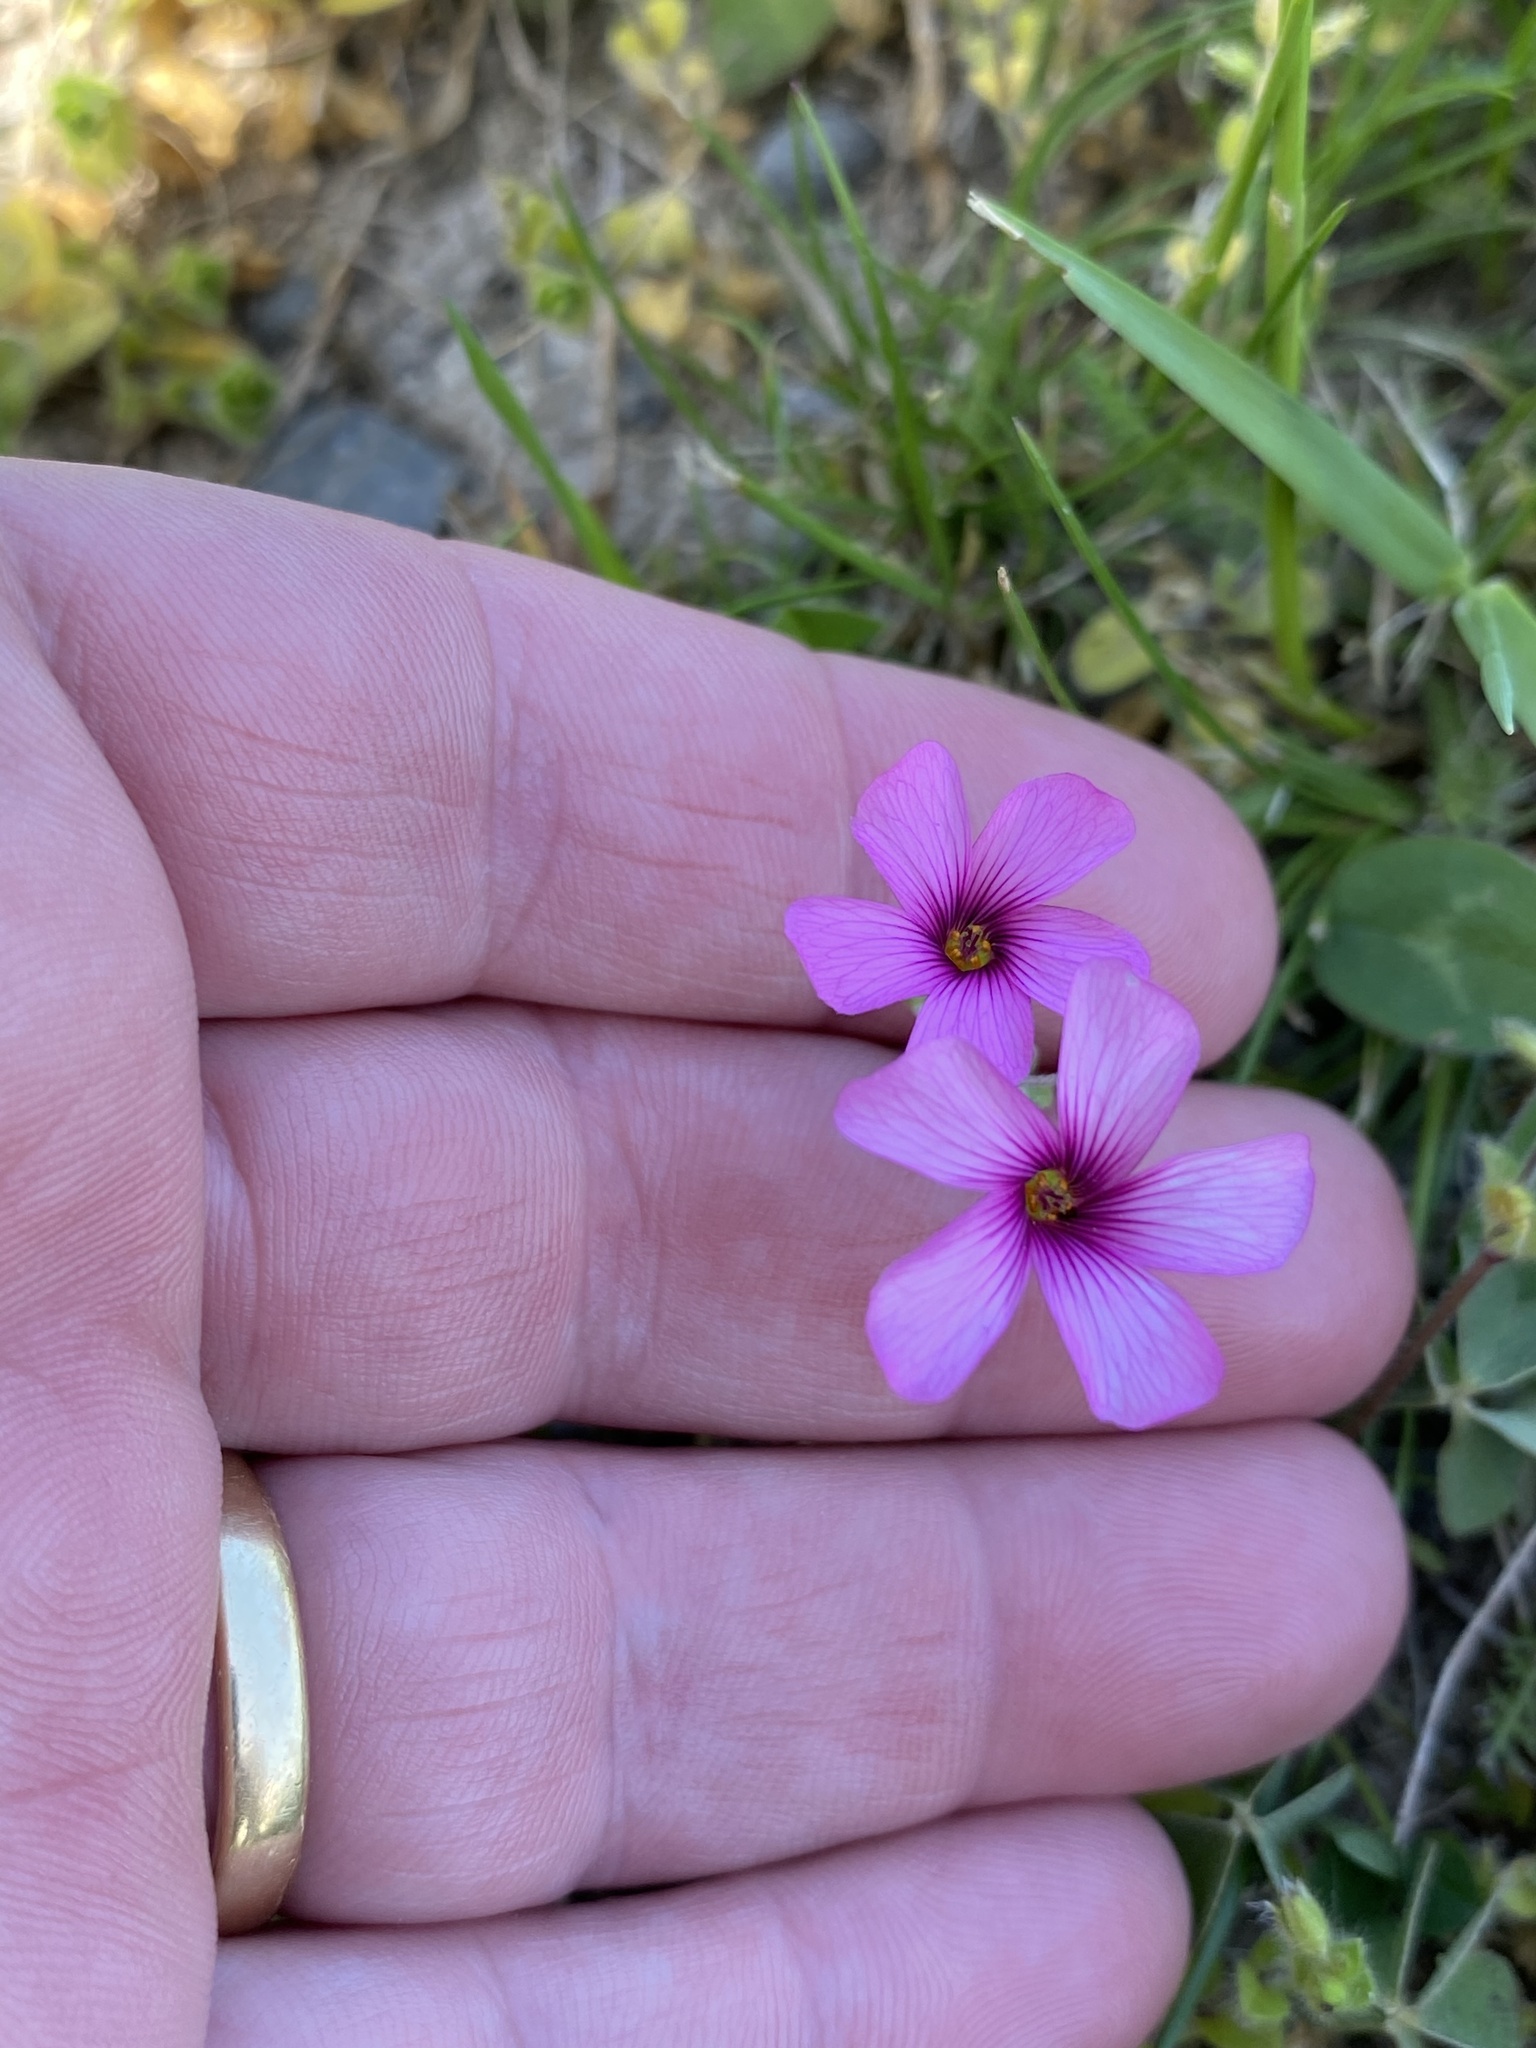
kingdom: Plantae
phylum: Tracheophyta
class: Magnoliopsida
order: Oxalidales
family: Oxalidaceae
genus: Oxalis
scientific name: Oxalis articulata
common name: Pink-sorrel
